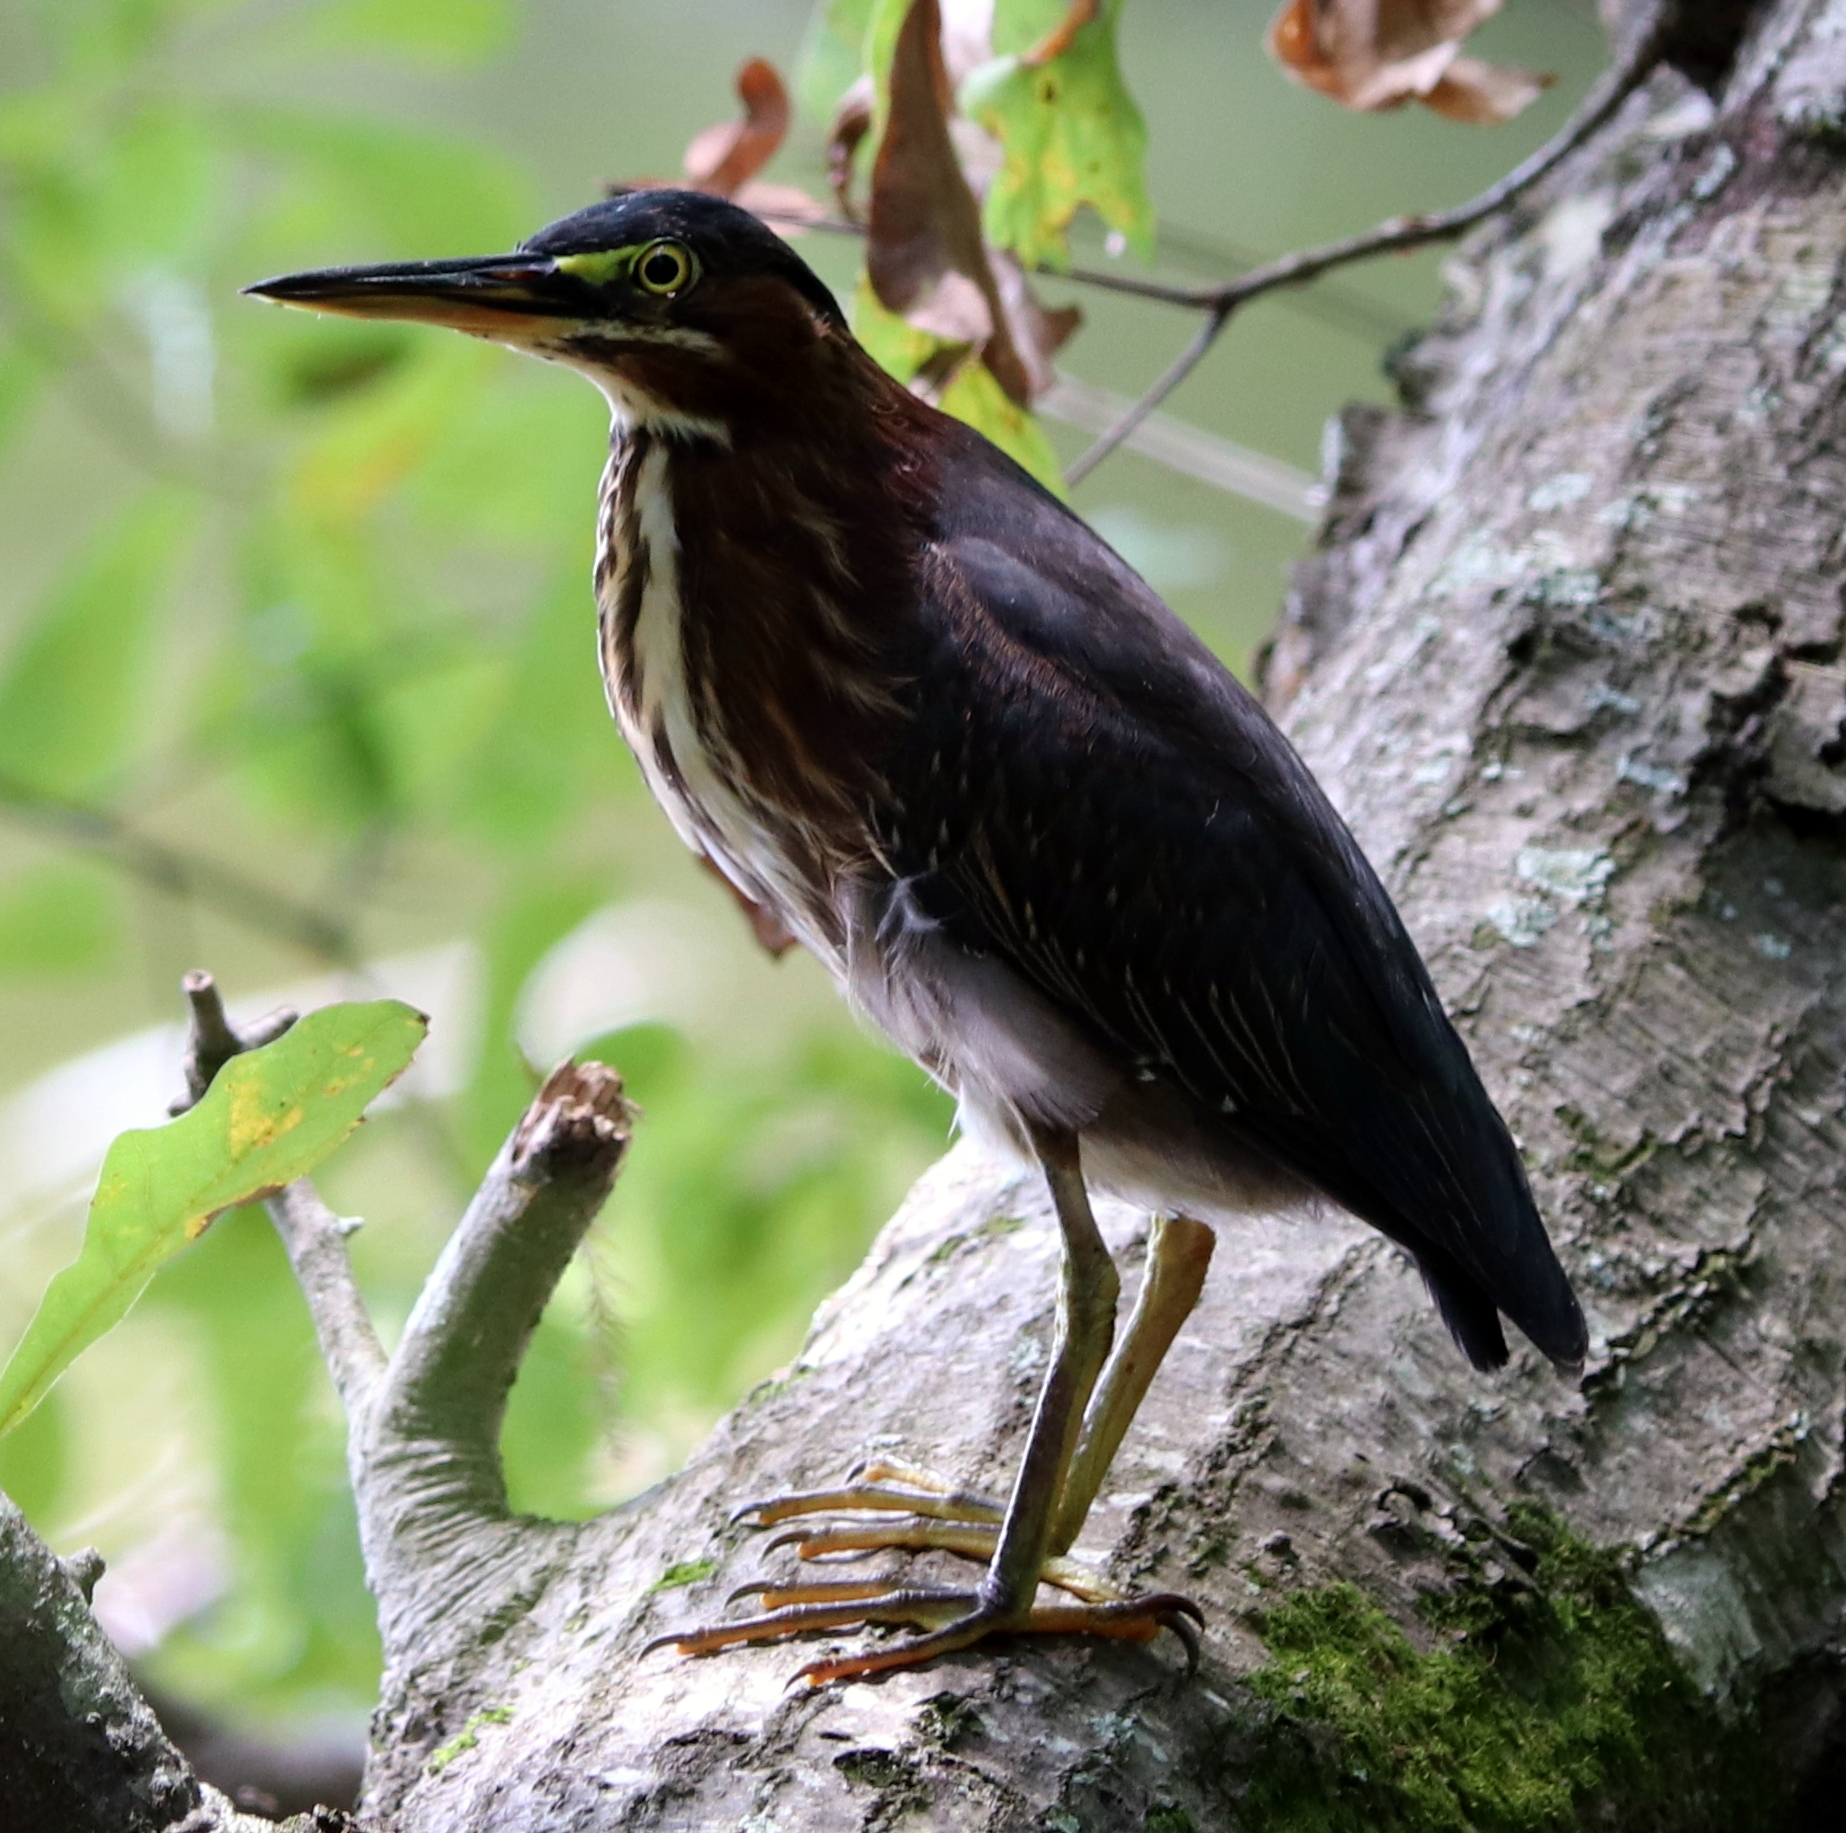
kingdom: Animalia
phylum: Chordata
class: Aves
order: Pelecaniformes
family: Ardeidae
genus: Butorides
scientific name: Butorides virescens
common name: Green heron
